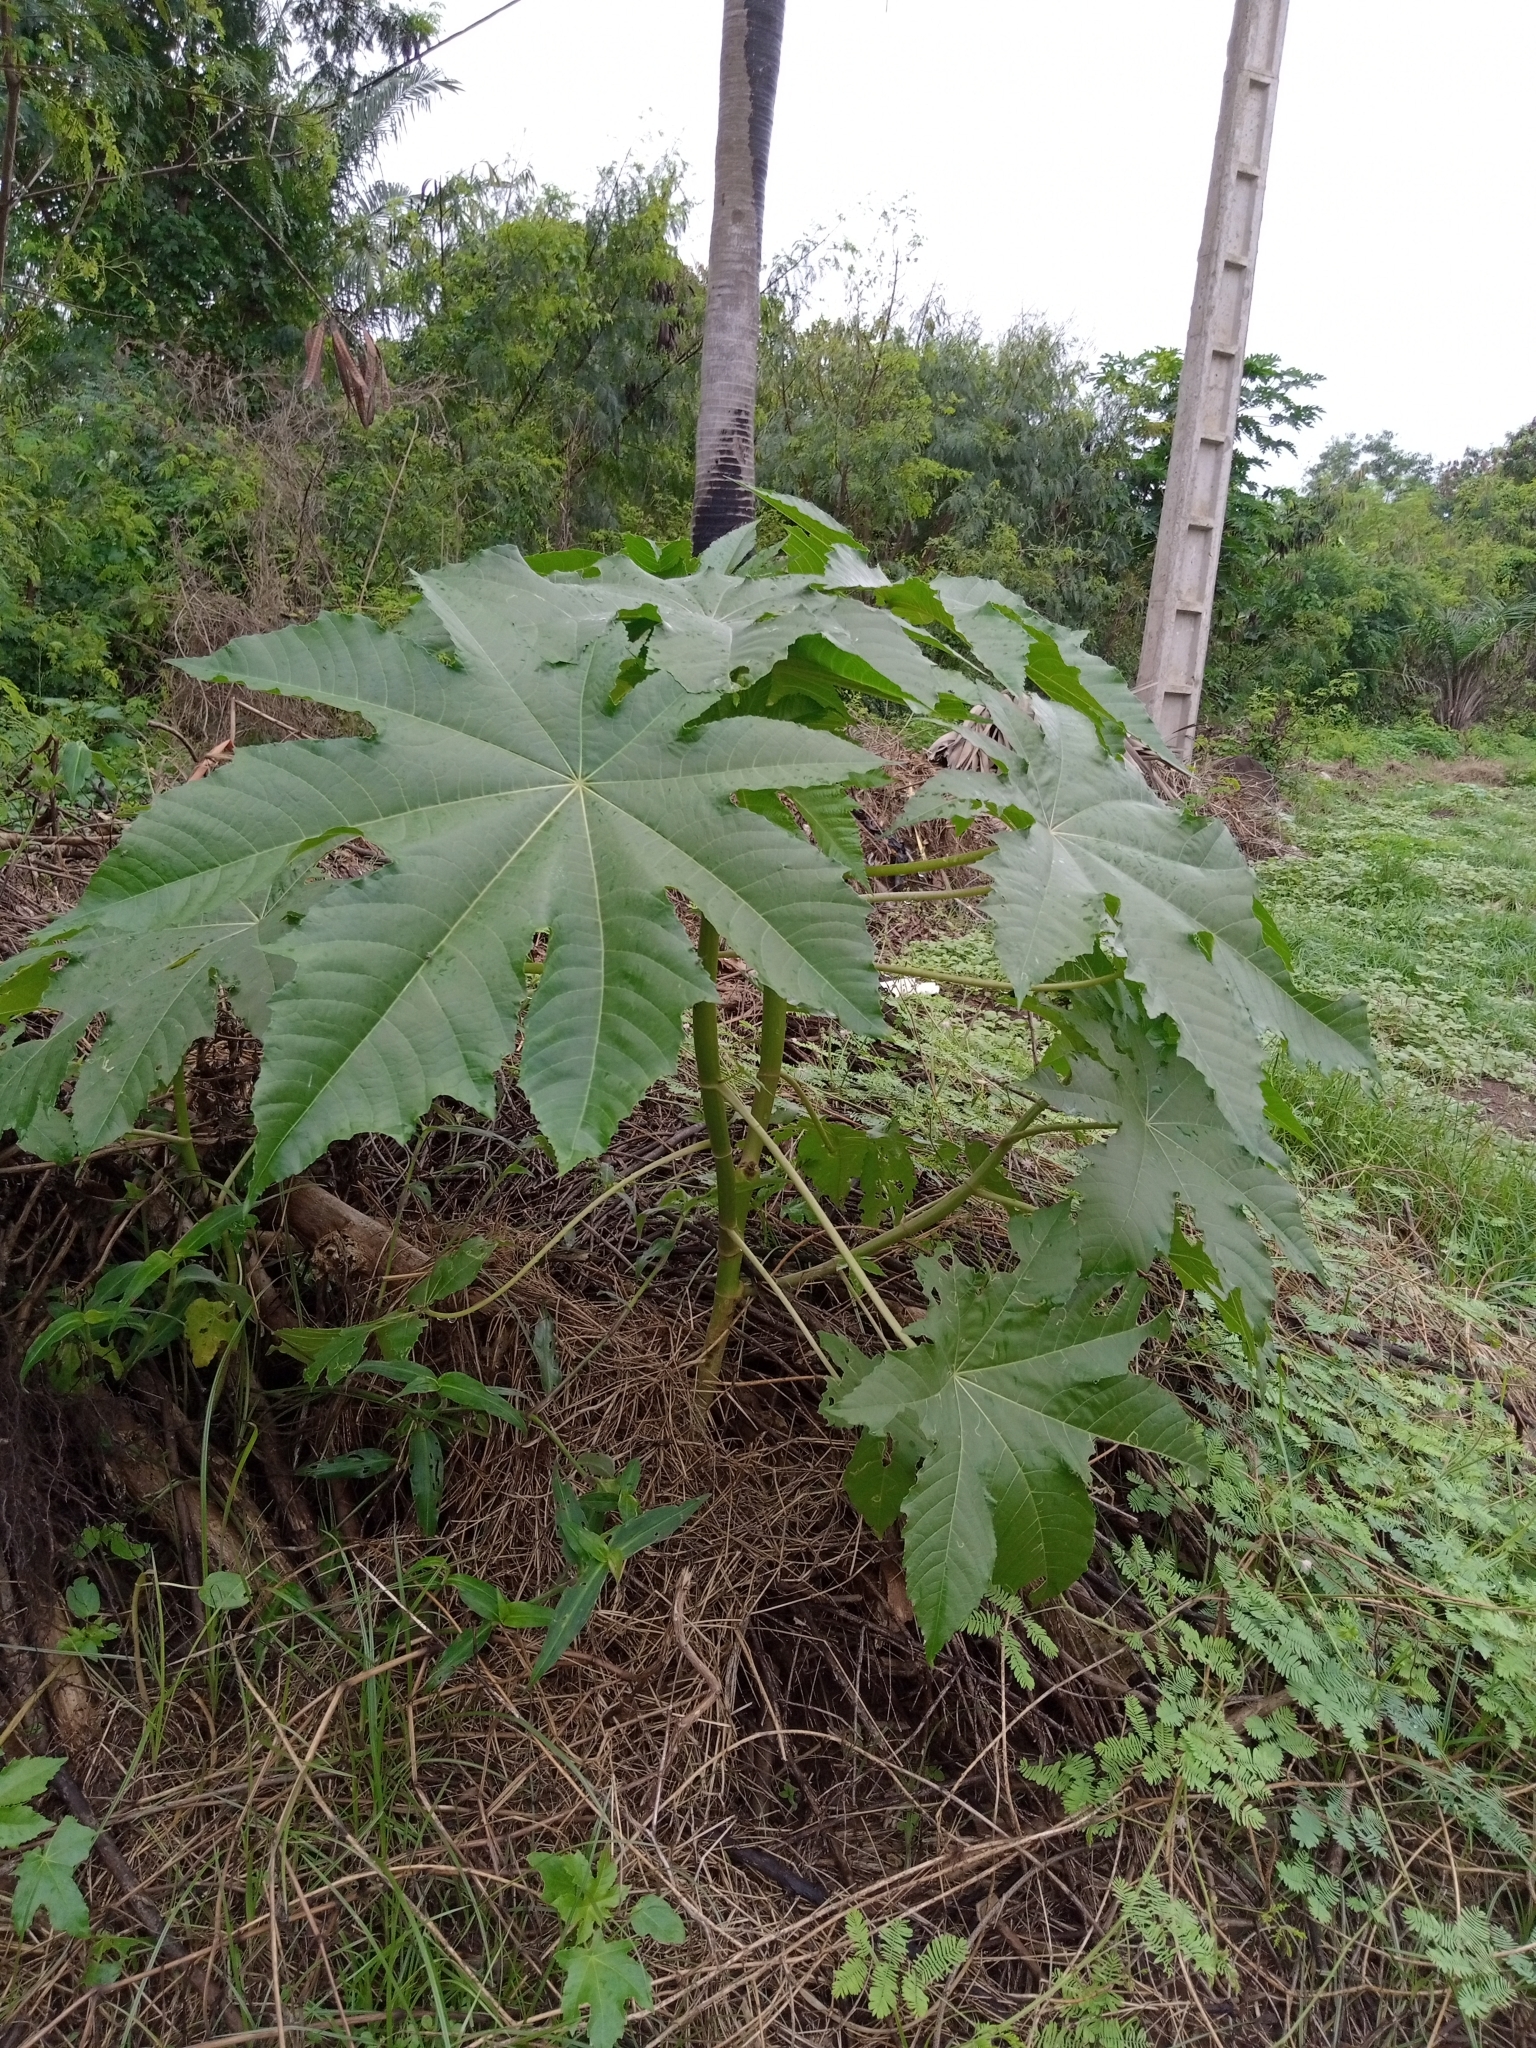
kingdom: Plantae
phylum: Tracheophyta
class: Magnoliopsida
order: Malpighiales
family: Euphorbiaceae
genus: Ricinus
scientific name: Ricinus communis
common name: Castor-oil-plant
